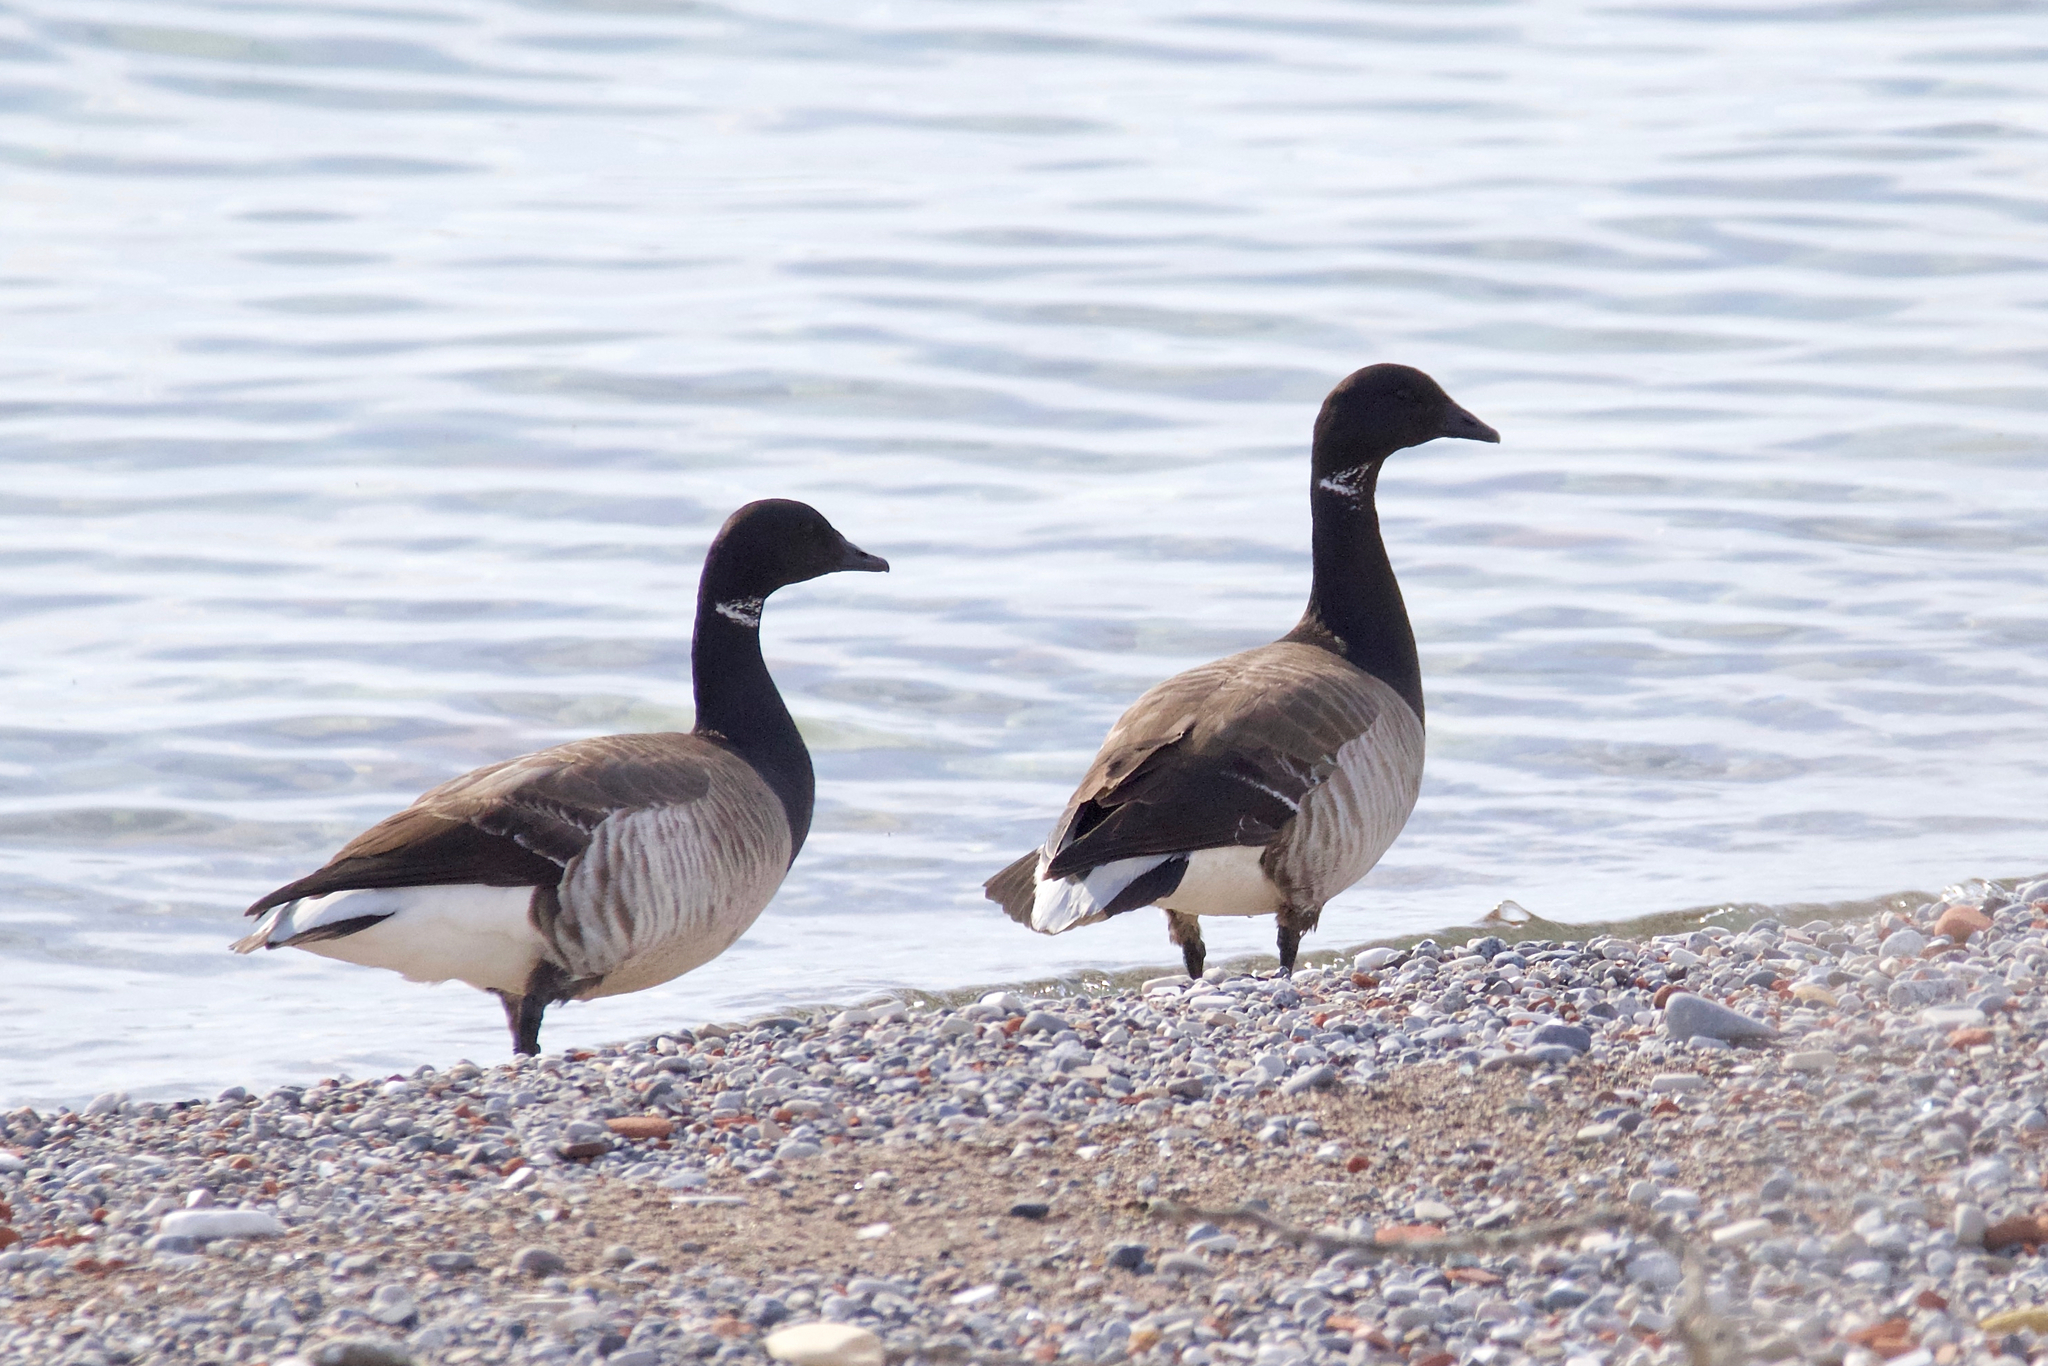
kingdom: Animalia
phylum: Chordata
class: Aves
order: Anseriformes
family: Anatidae
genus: Branta
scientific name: Branta bernicla
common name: Brant goose
